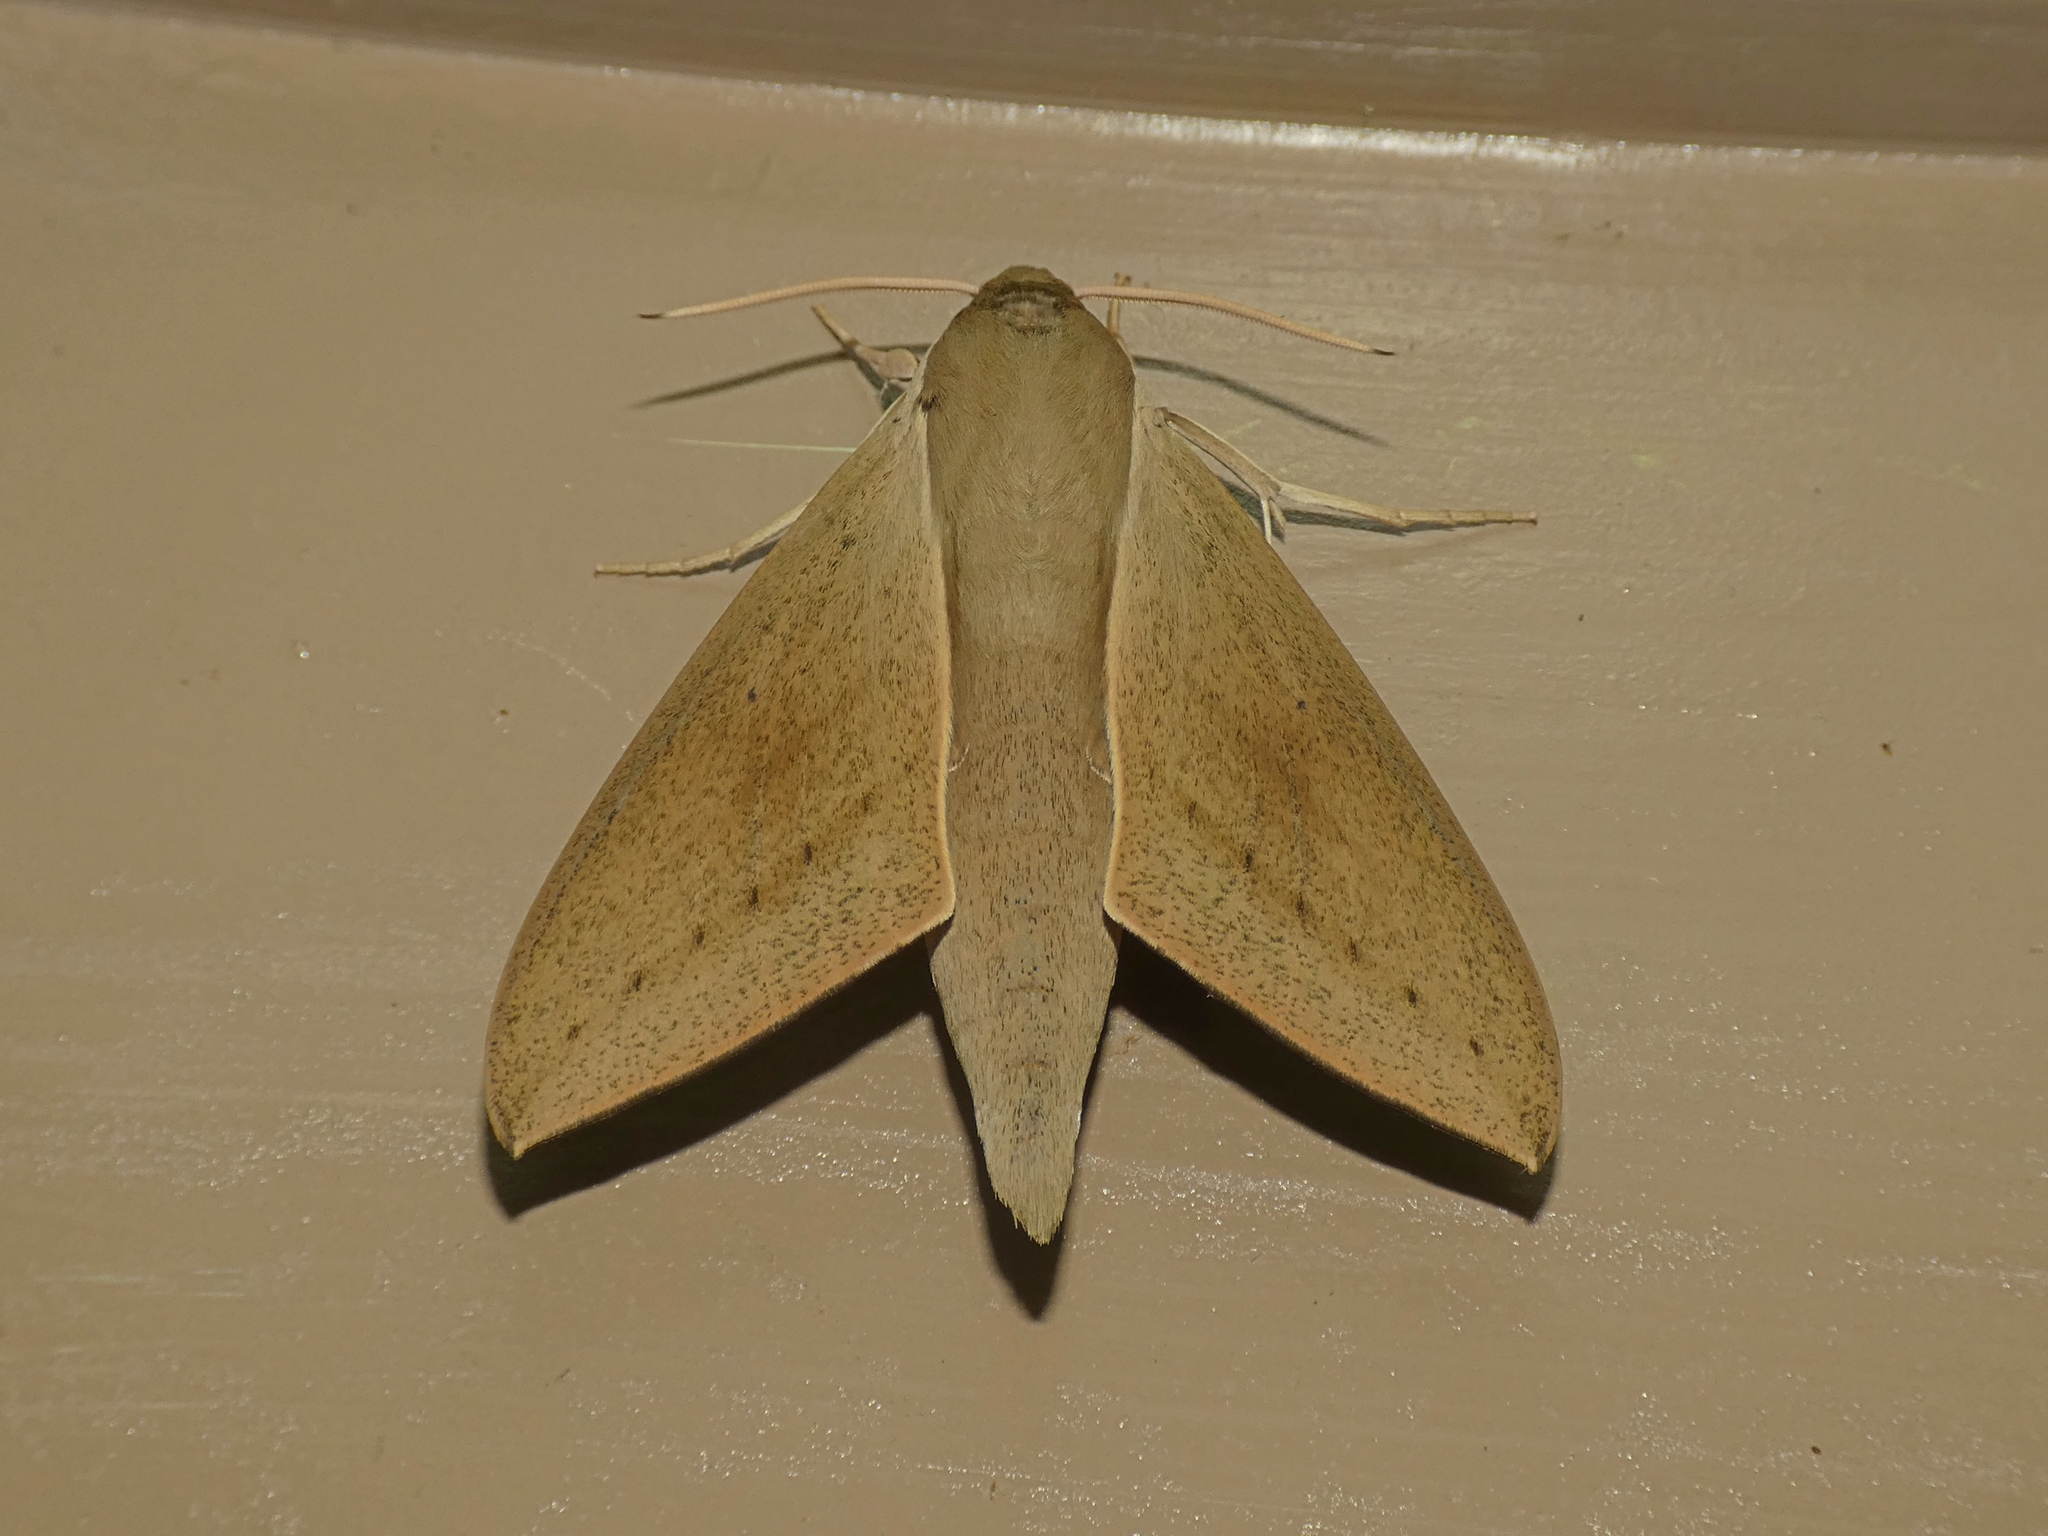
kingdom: Animalia
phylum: Arthropoda
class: Insecta
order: Lepidoptera
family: Sphingidae
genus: Theretra
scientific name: Theretra latreillii
